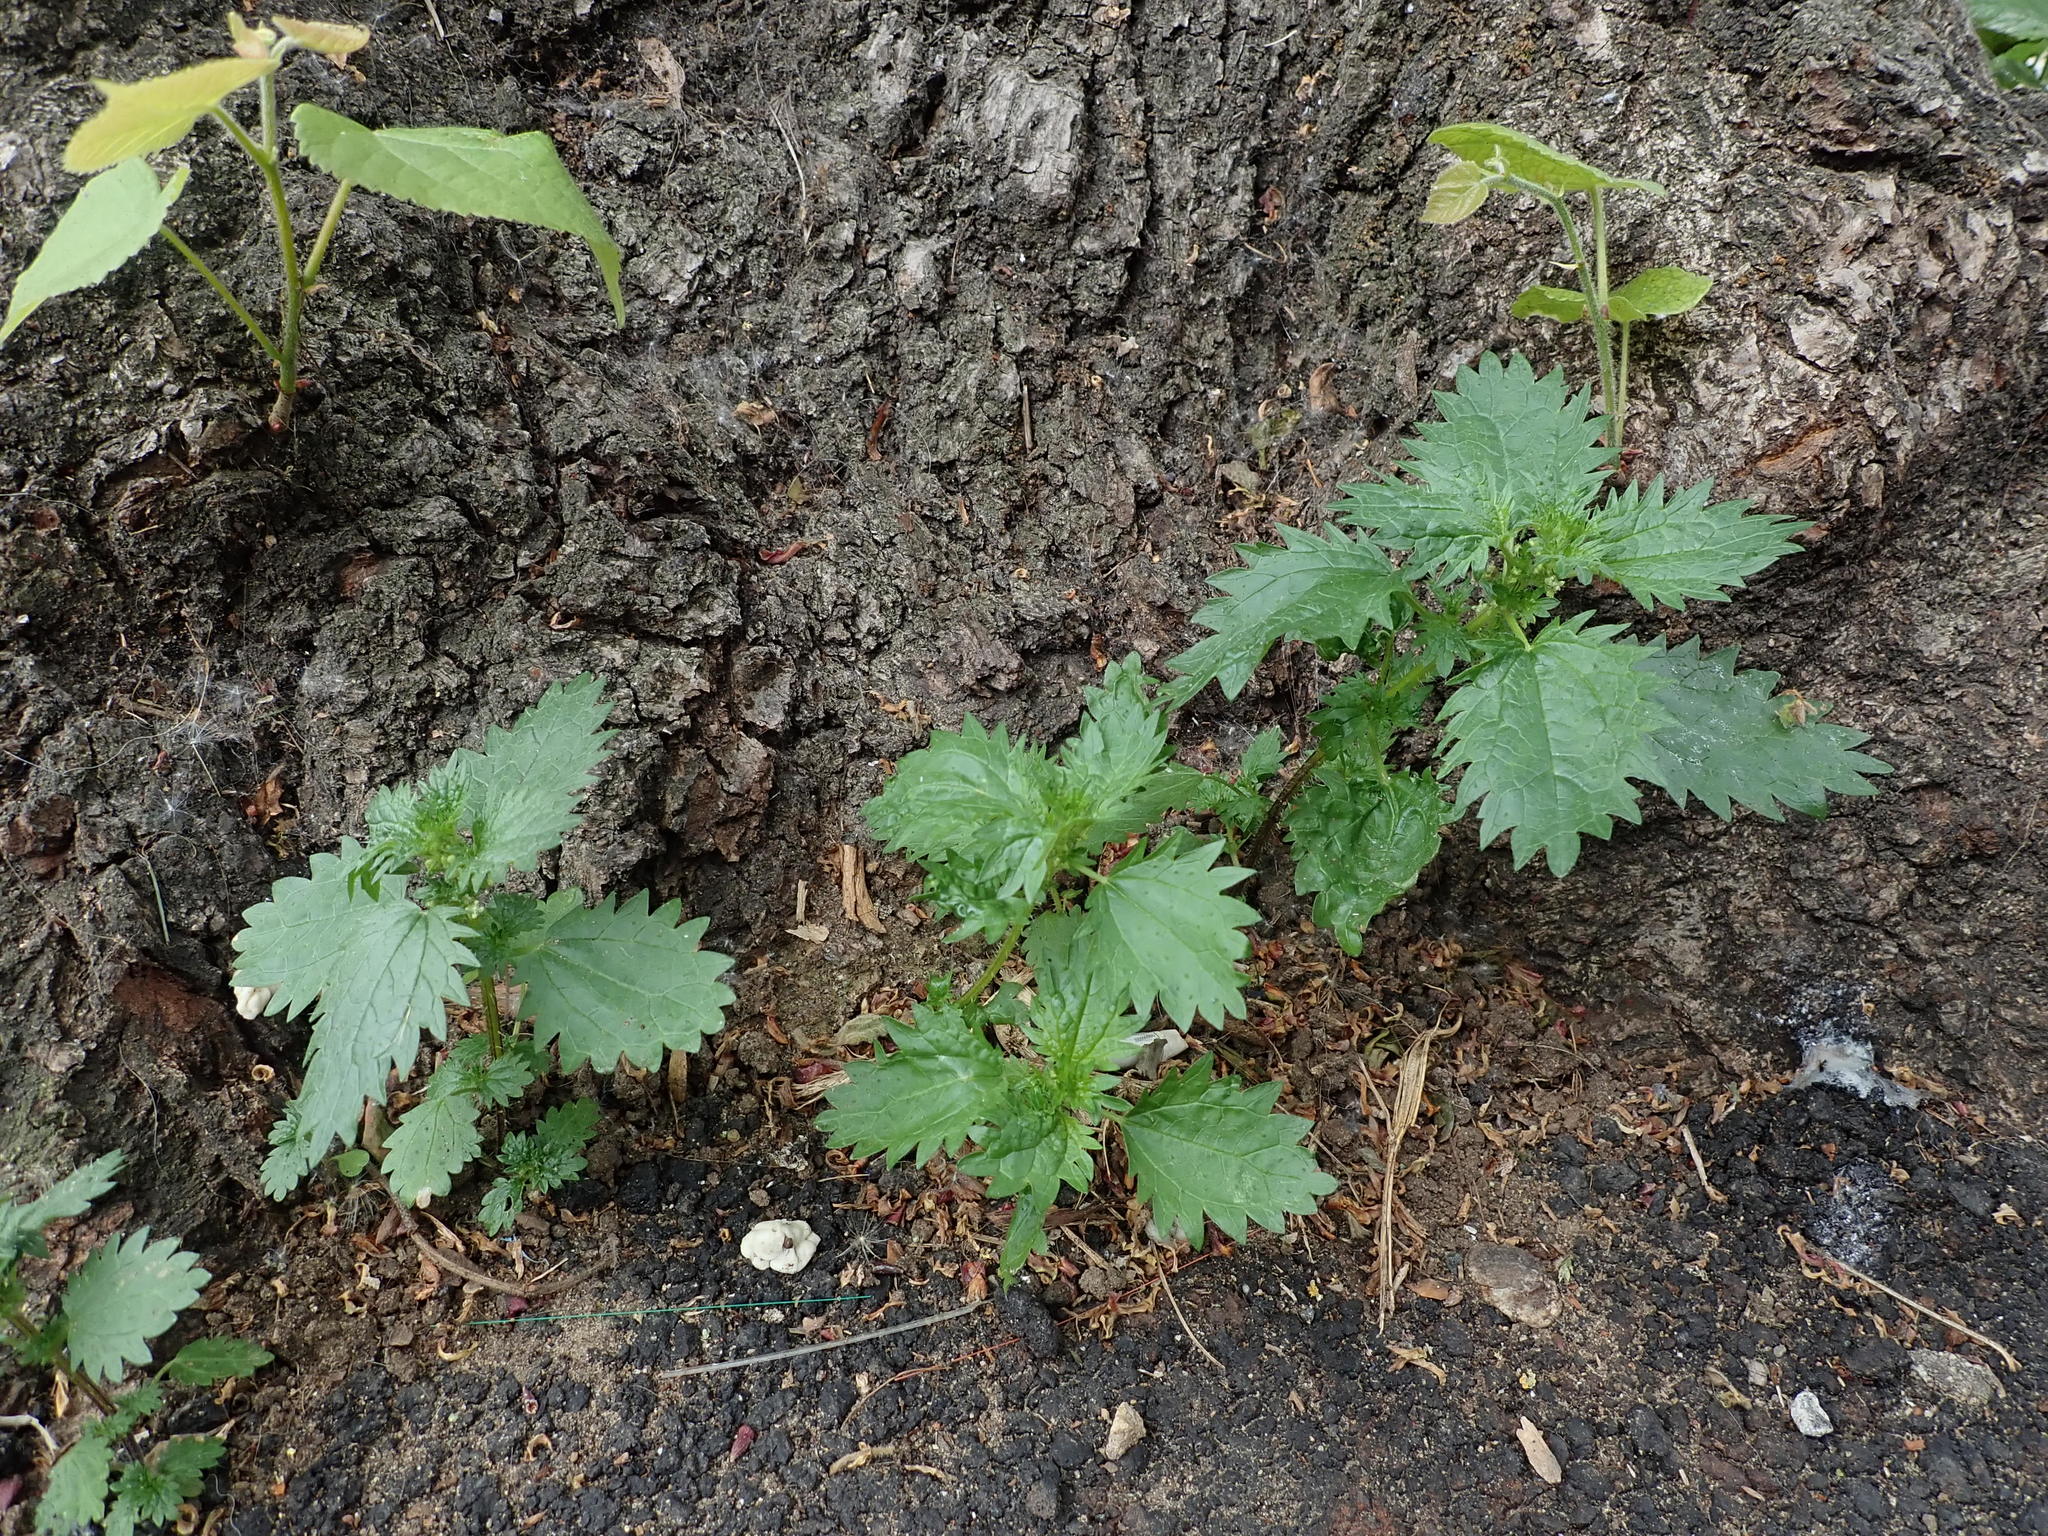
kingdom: Plantae
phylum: Tracheophyta
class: Magnoliopsida
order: Rosales
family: Urticaceae
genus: Urtica
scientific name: Urtica urens
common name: Dwarf nettle
